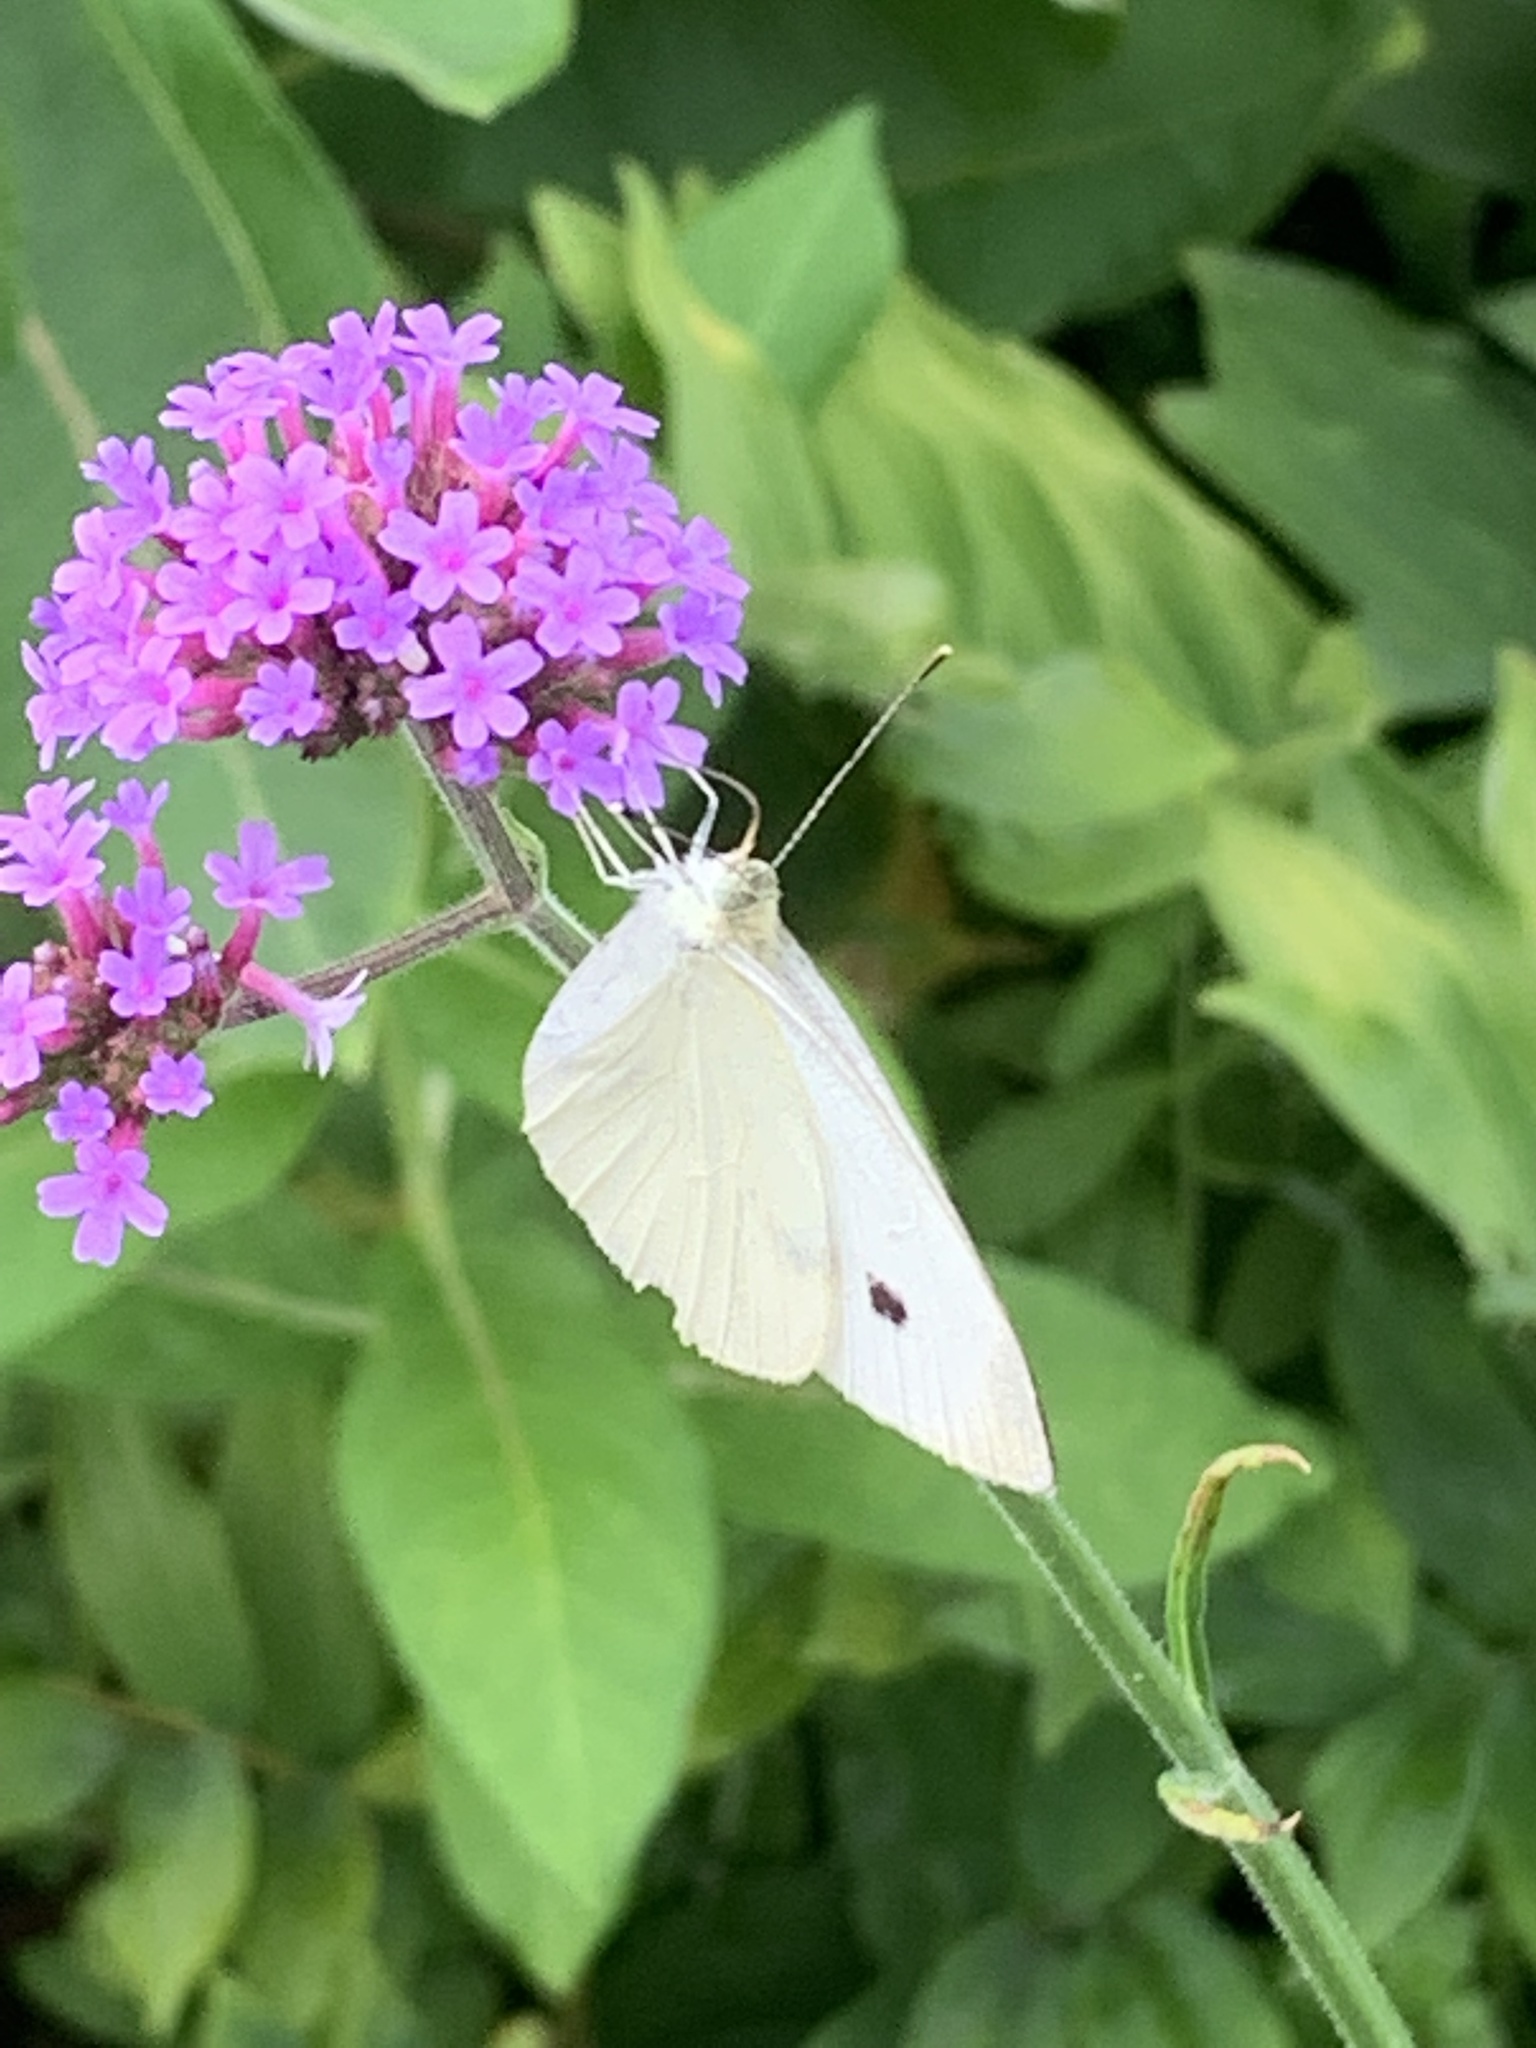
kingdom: Animalia
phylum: Arthropoda
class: Insecta
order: Lepidoptera
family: Pieridae
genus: Pieris
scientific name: Pieris rapae
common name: Small white
